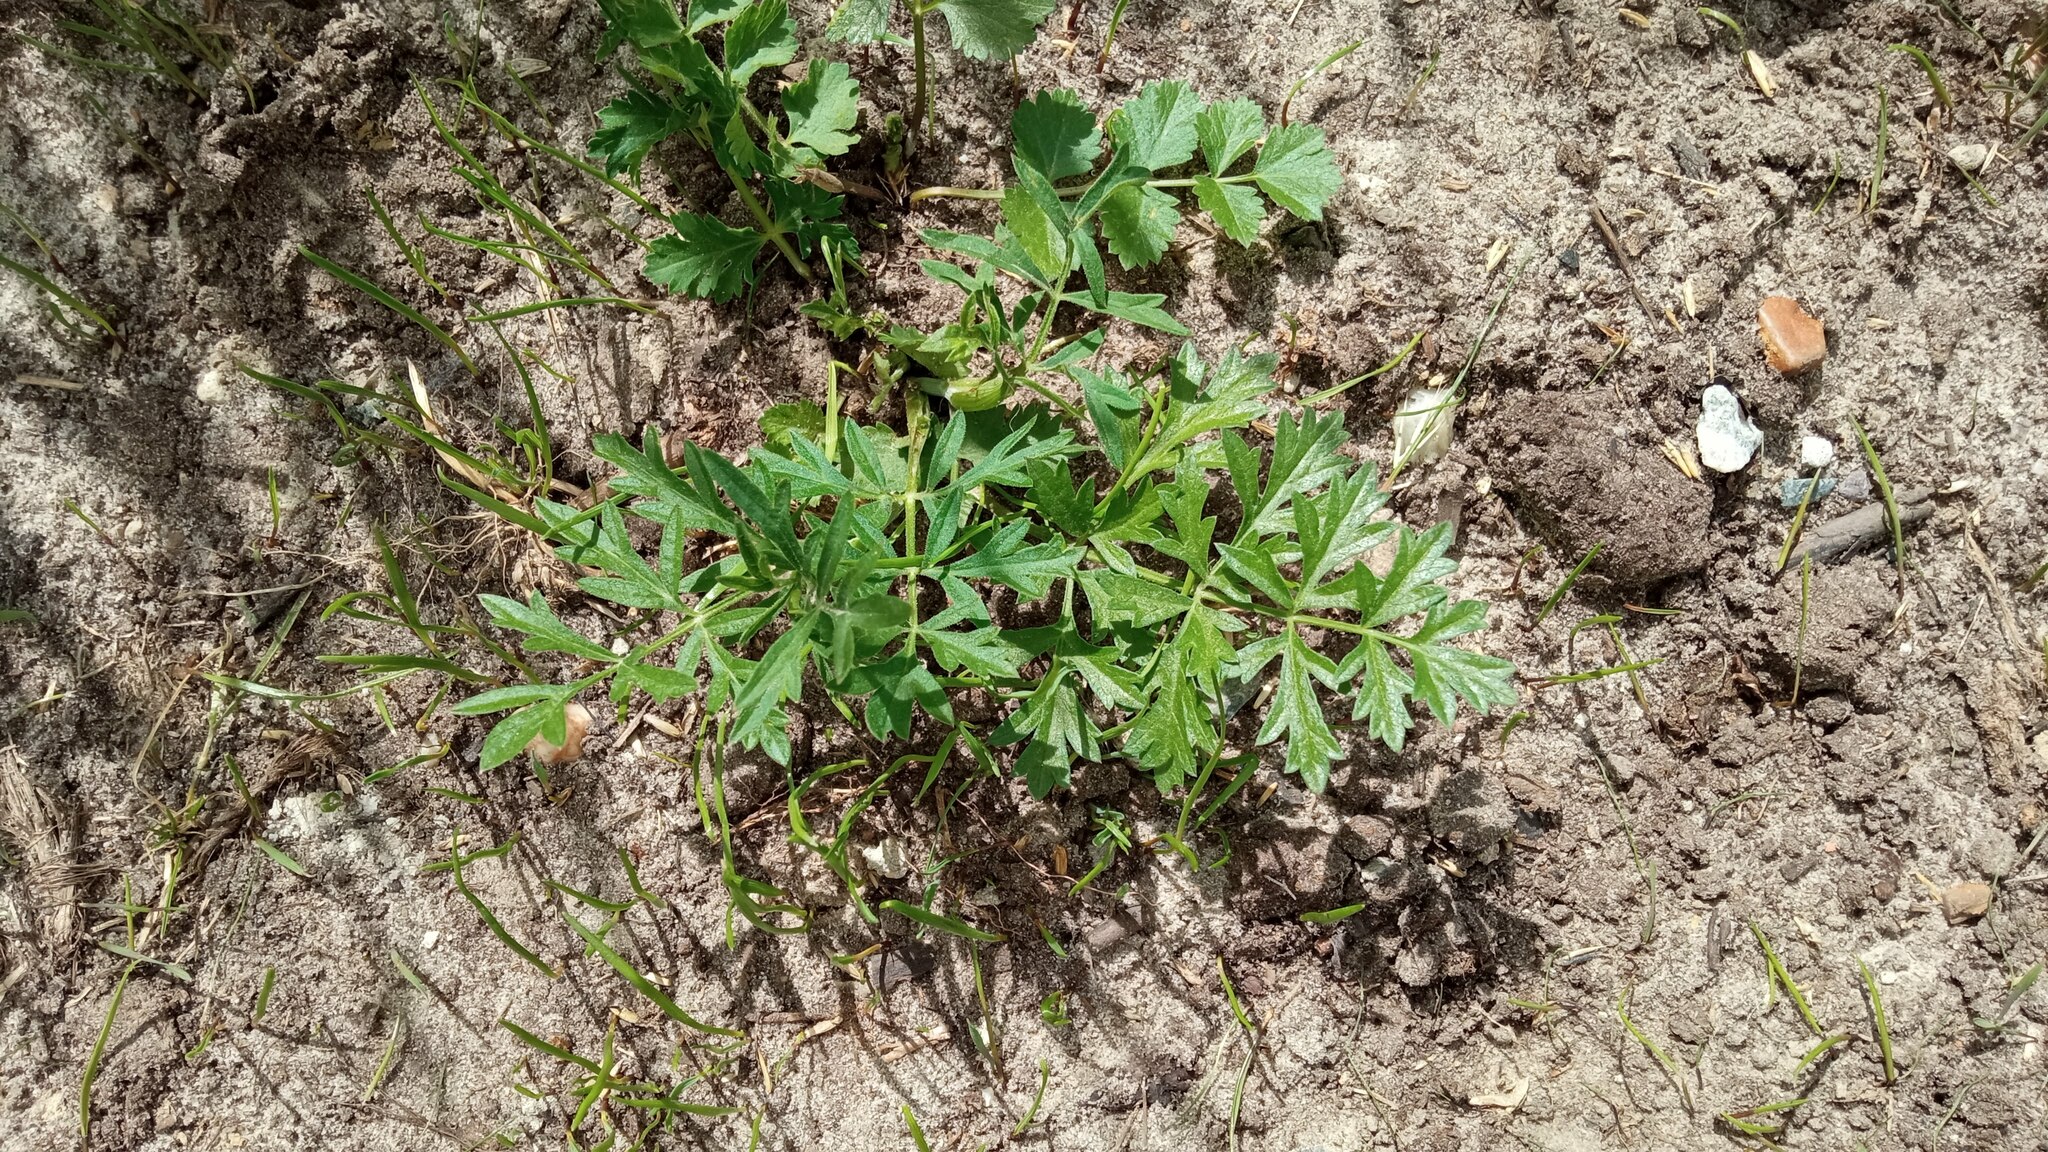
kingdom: Plantae
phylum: Tracheophyta
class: Magnoliopsida
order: Apiales
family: Apiaceae
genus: Pimpinella
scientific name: Pimpinella saxifraga
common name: Burnet-saxifrage
